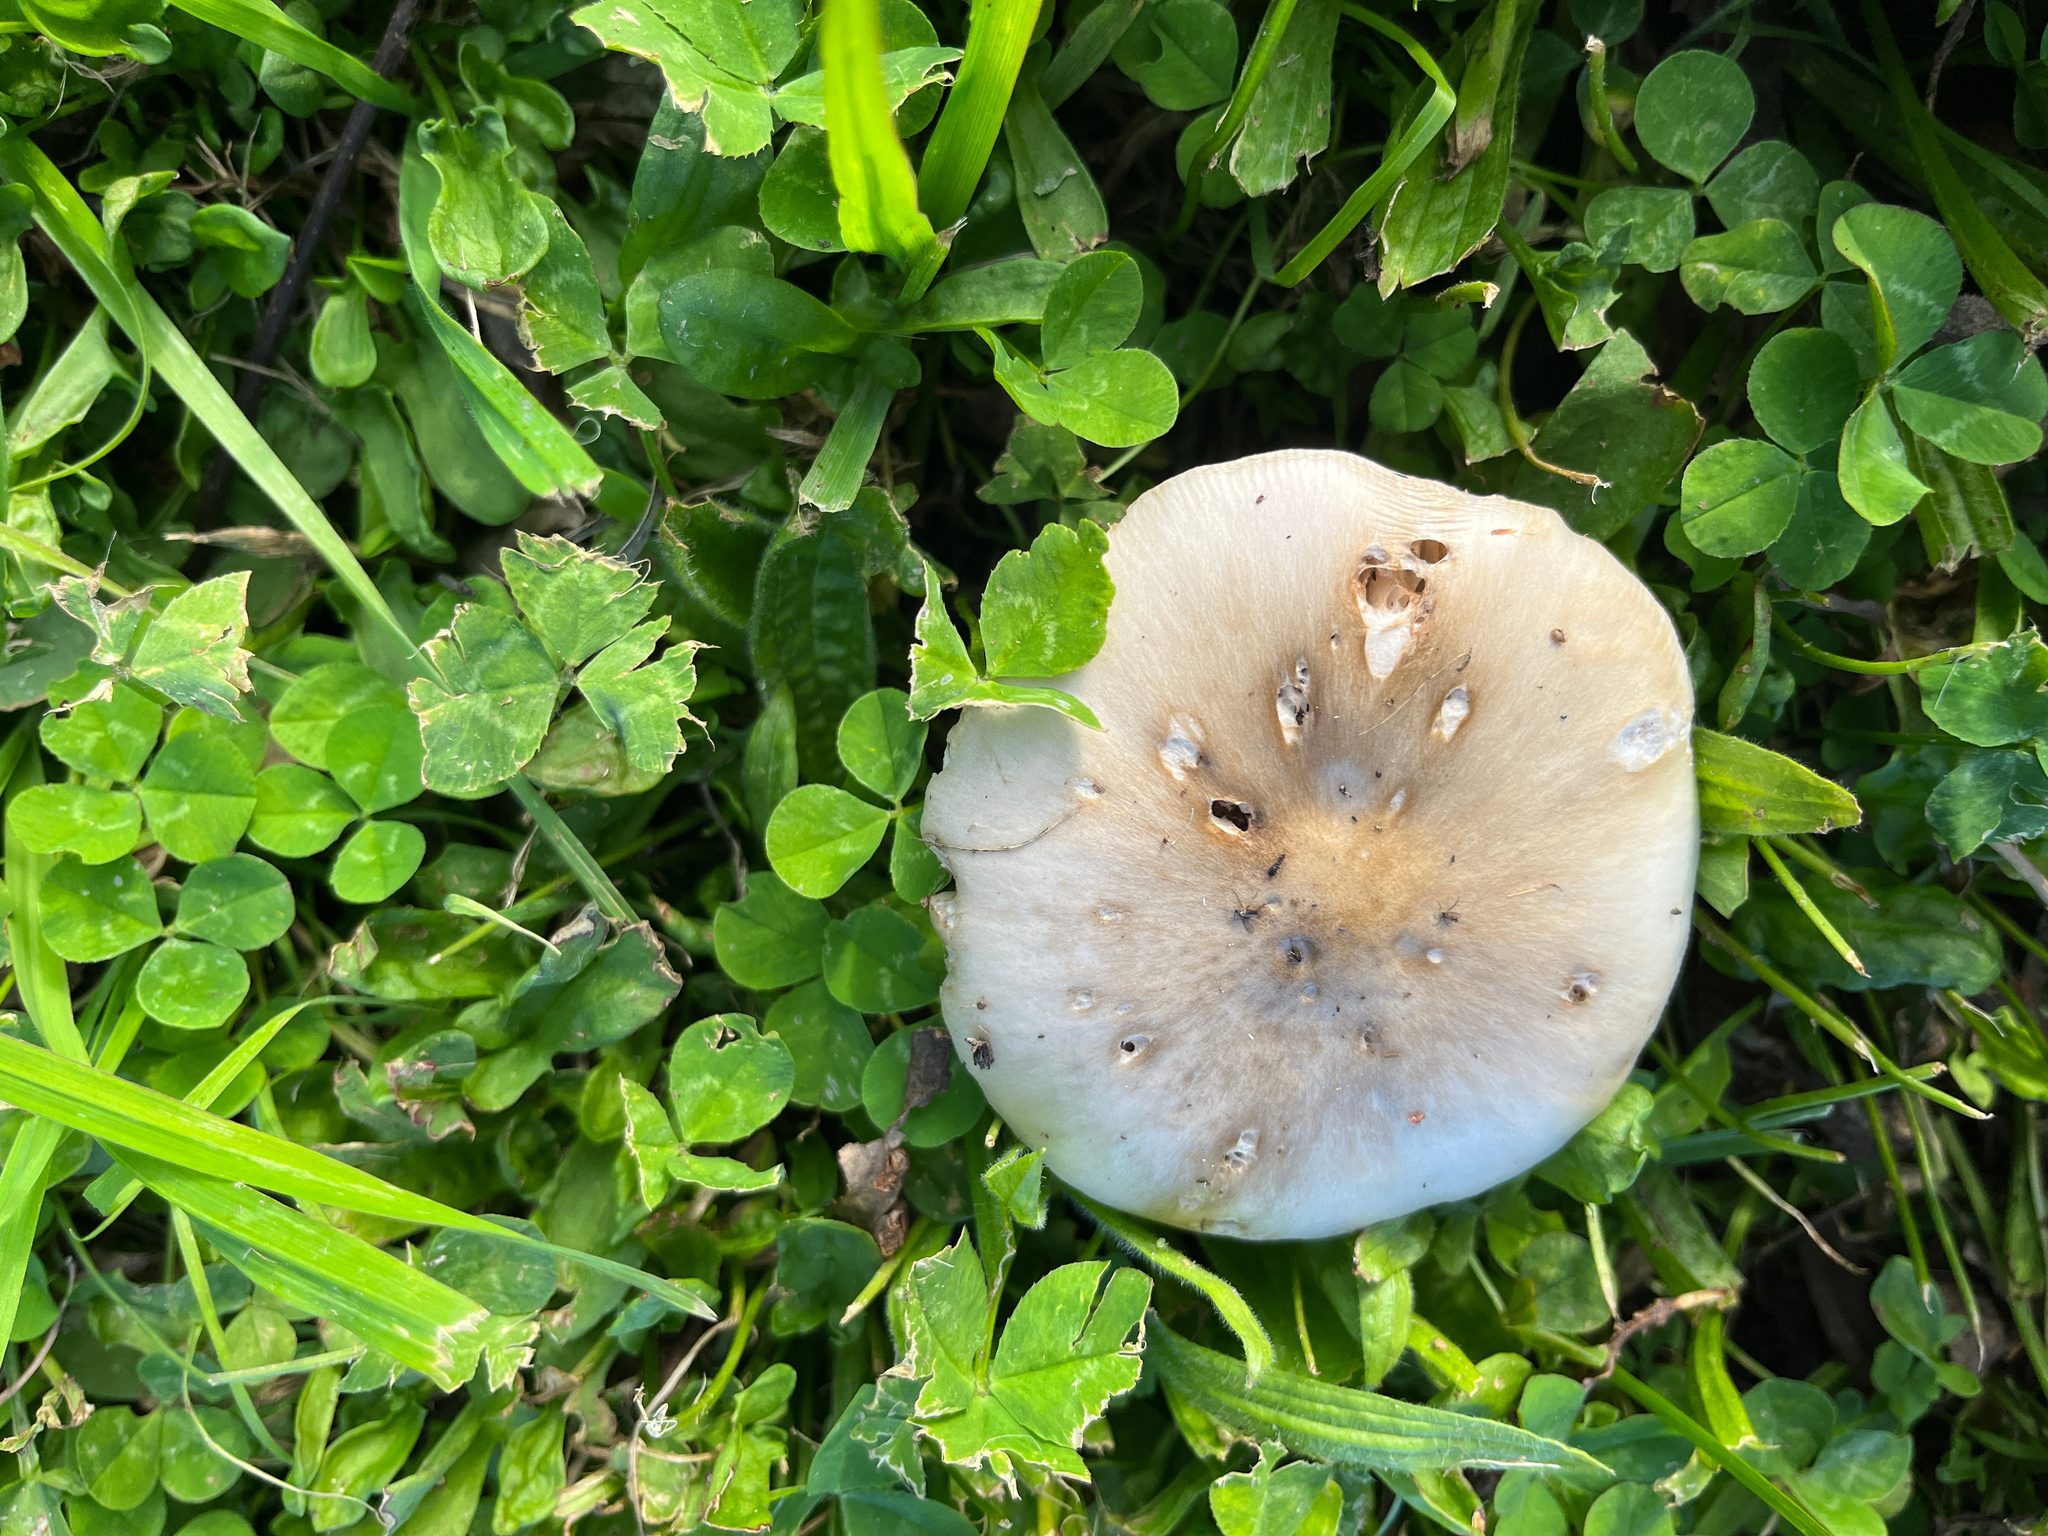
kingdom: Fungi
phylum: Basidiomycota
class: Agaricomycetes
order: Agaricales
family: Pluteaceae
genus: Volvopluteus
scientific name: Volvopluteus gloiocephalus
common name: Stubble rosegill
